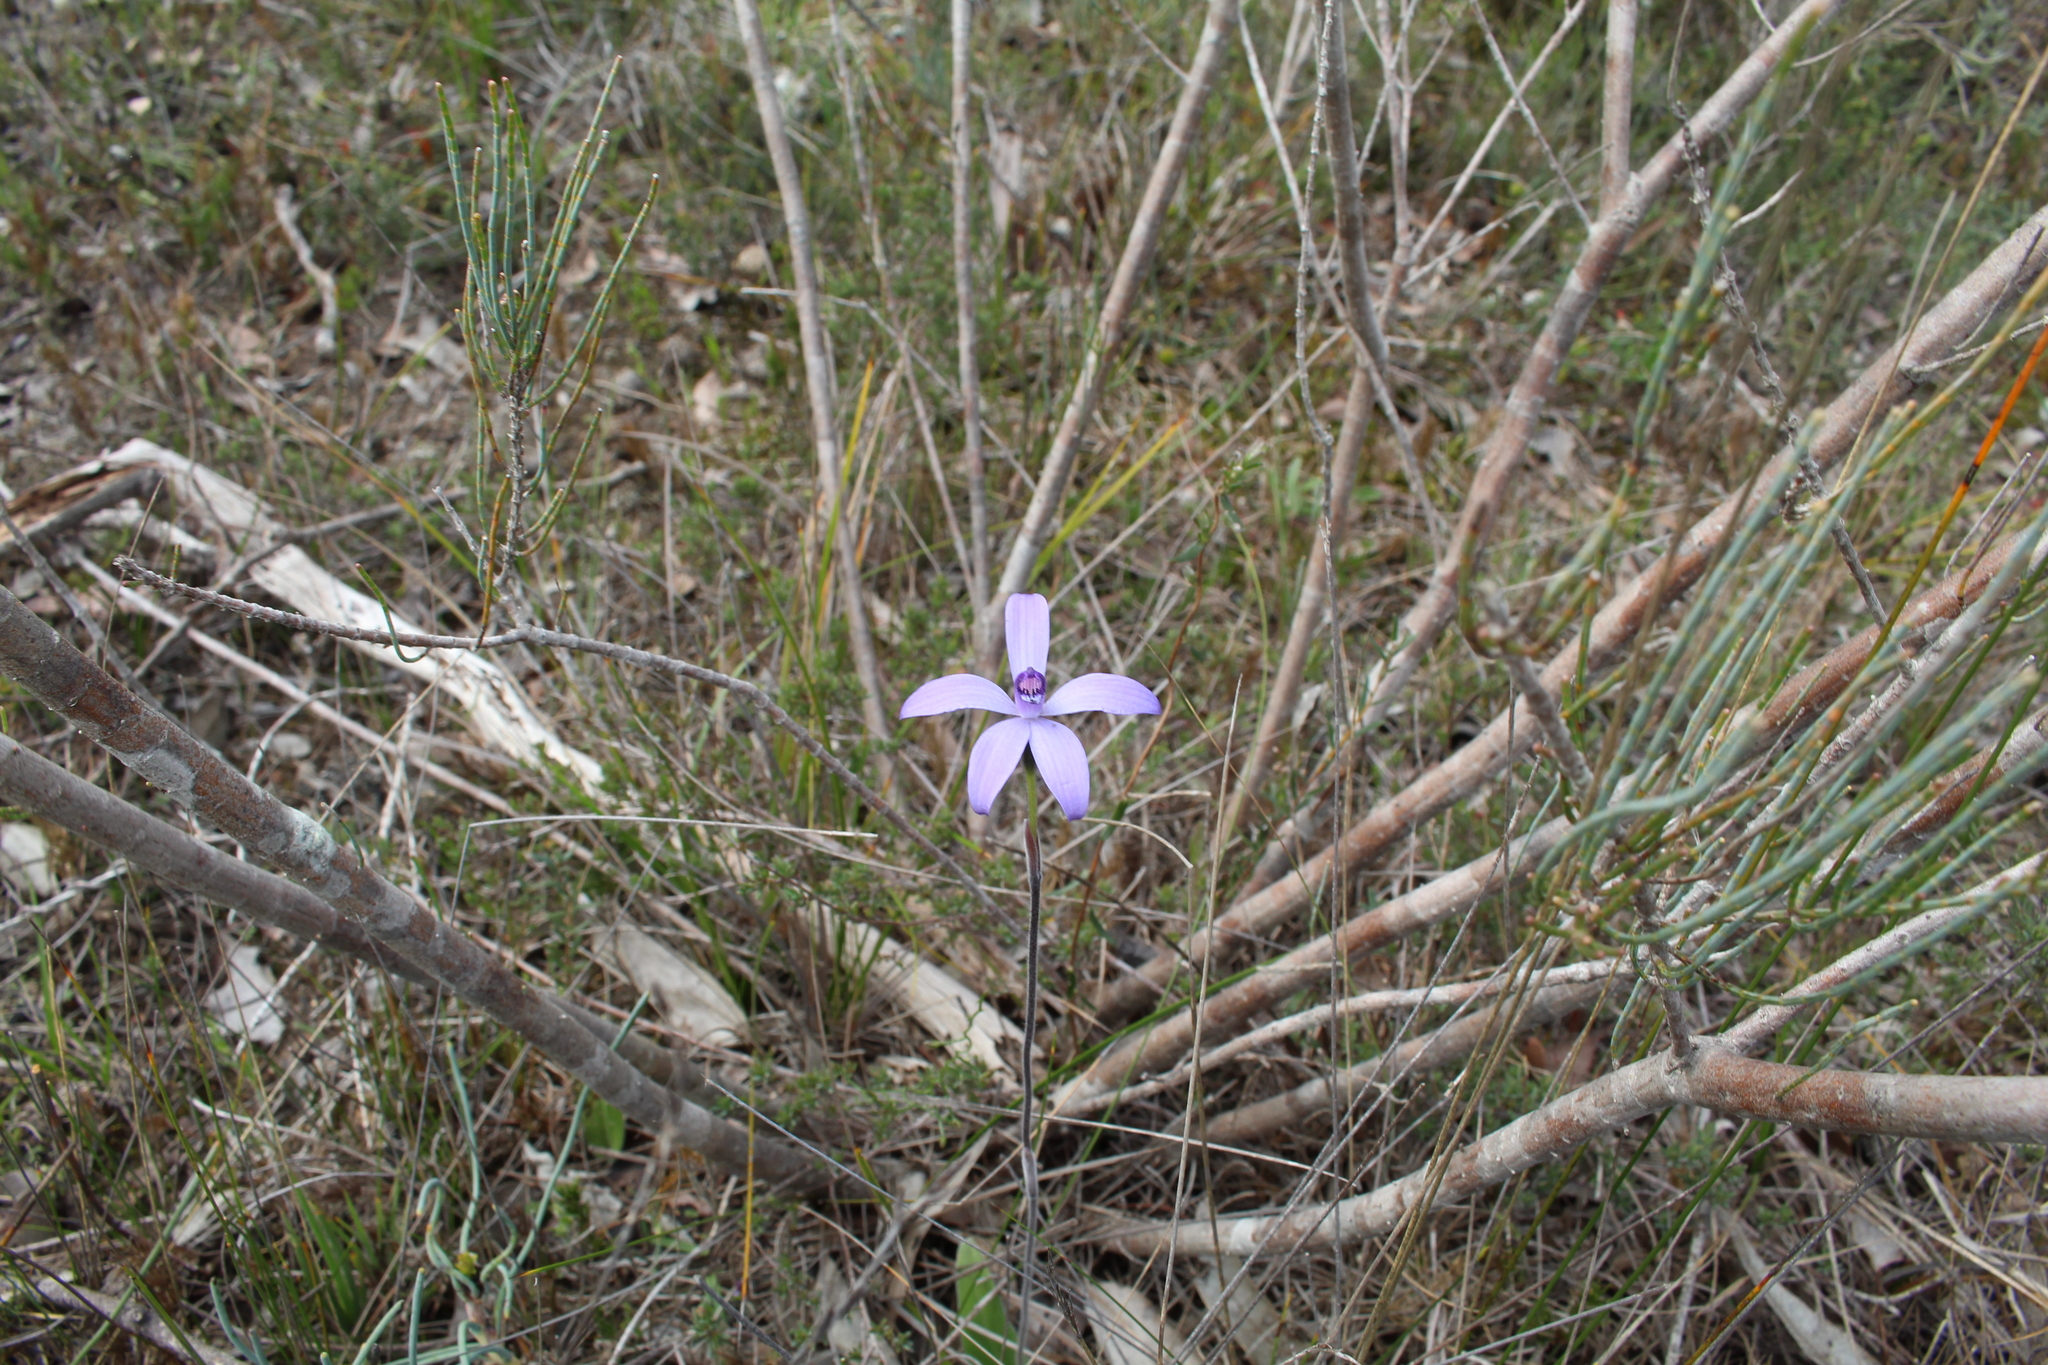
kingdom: Plantae
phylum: Tracheophyta
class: Liliopsida
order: Asparagales
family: Orchidaceae
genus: Caladenia
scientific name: Caladenia sericea
